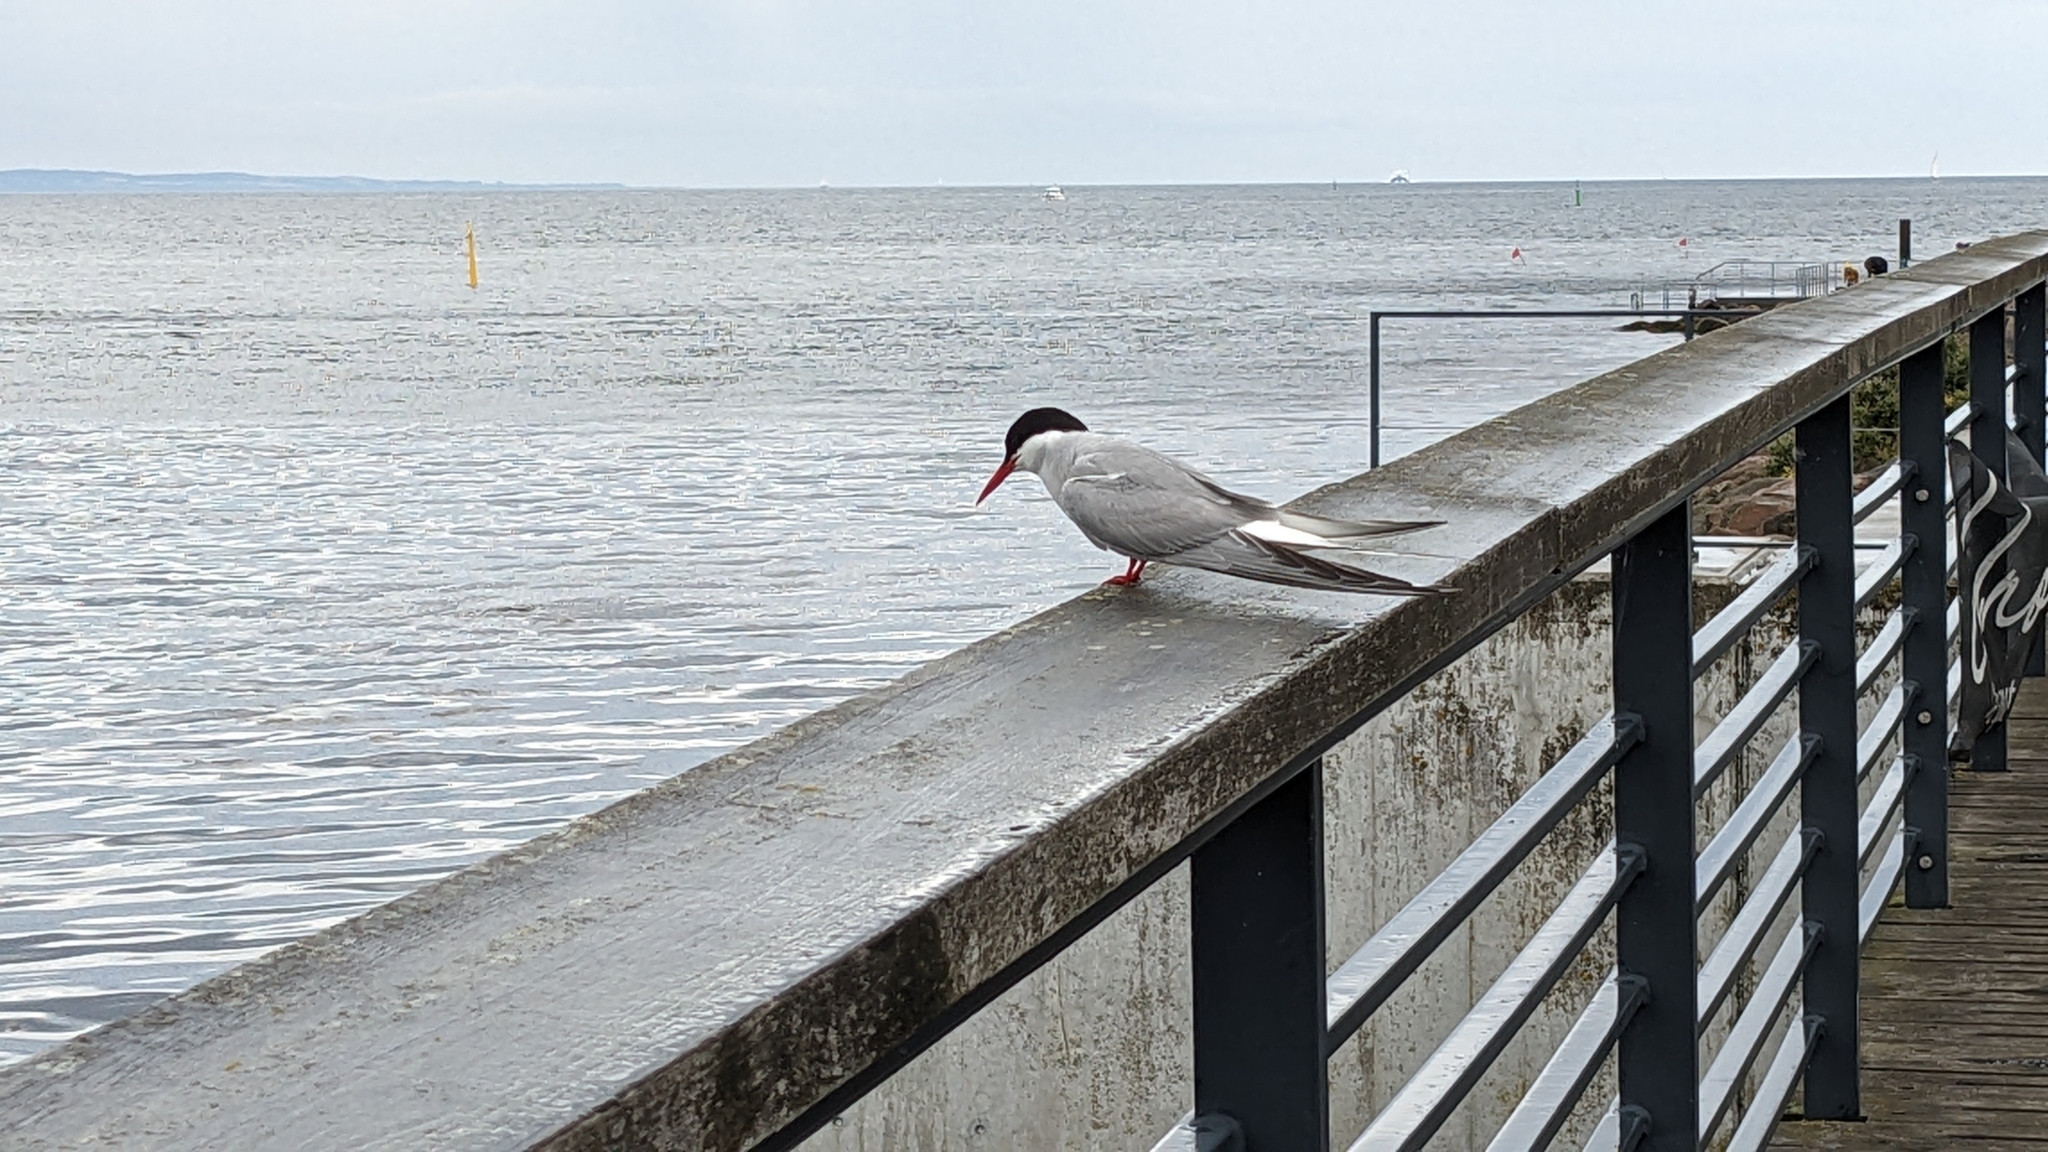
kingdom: Animalia
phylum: Chordata
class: Aves
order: Charadriiformes
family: Laridae
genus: Sterna
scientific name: Sterna paradisaea
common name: Arctic tern
